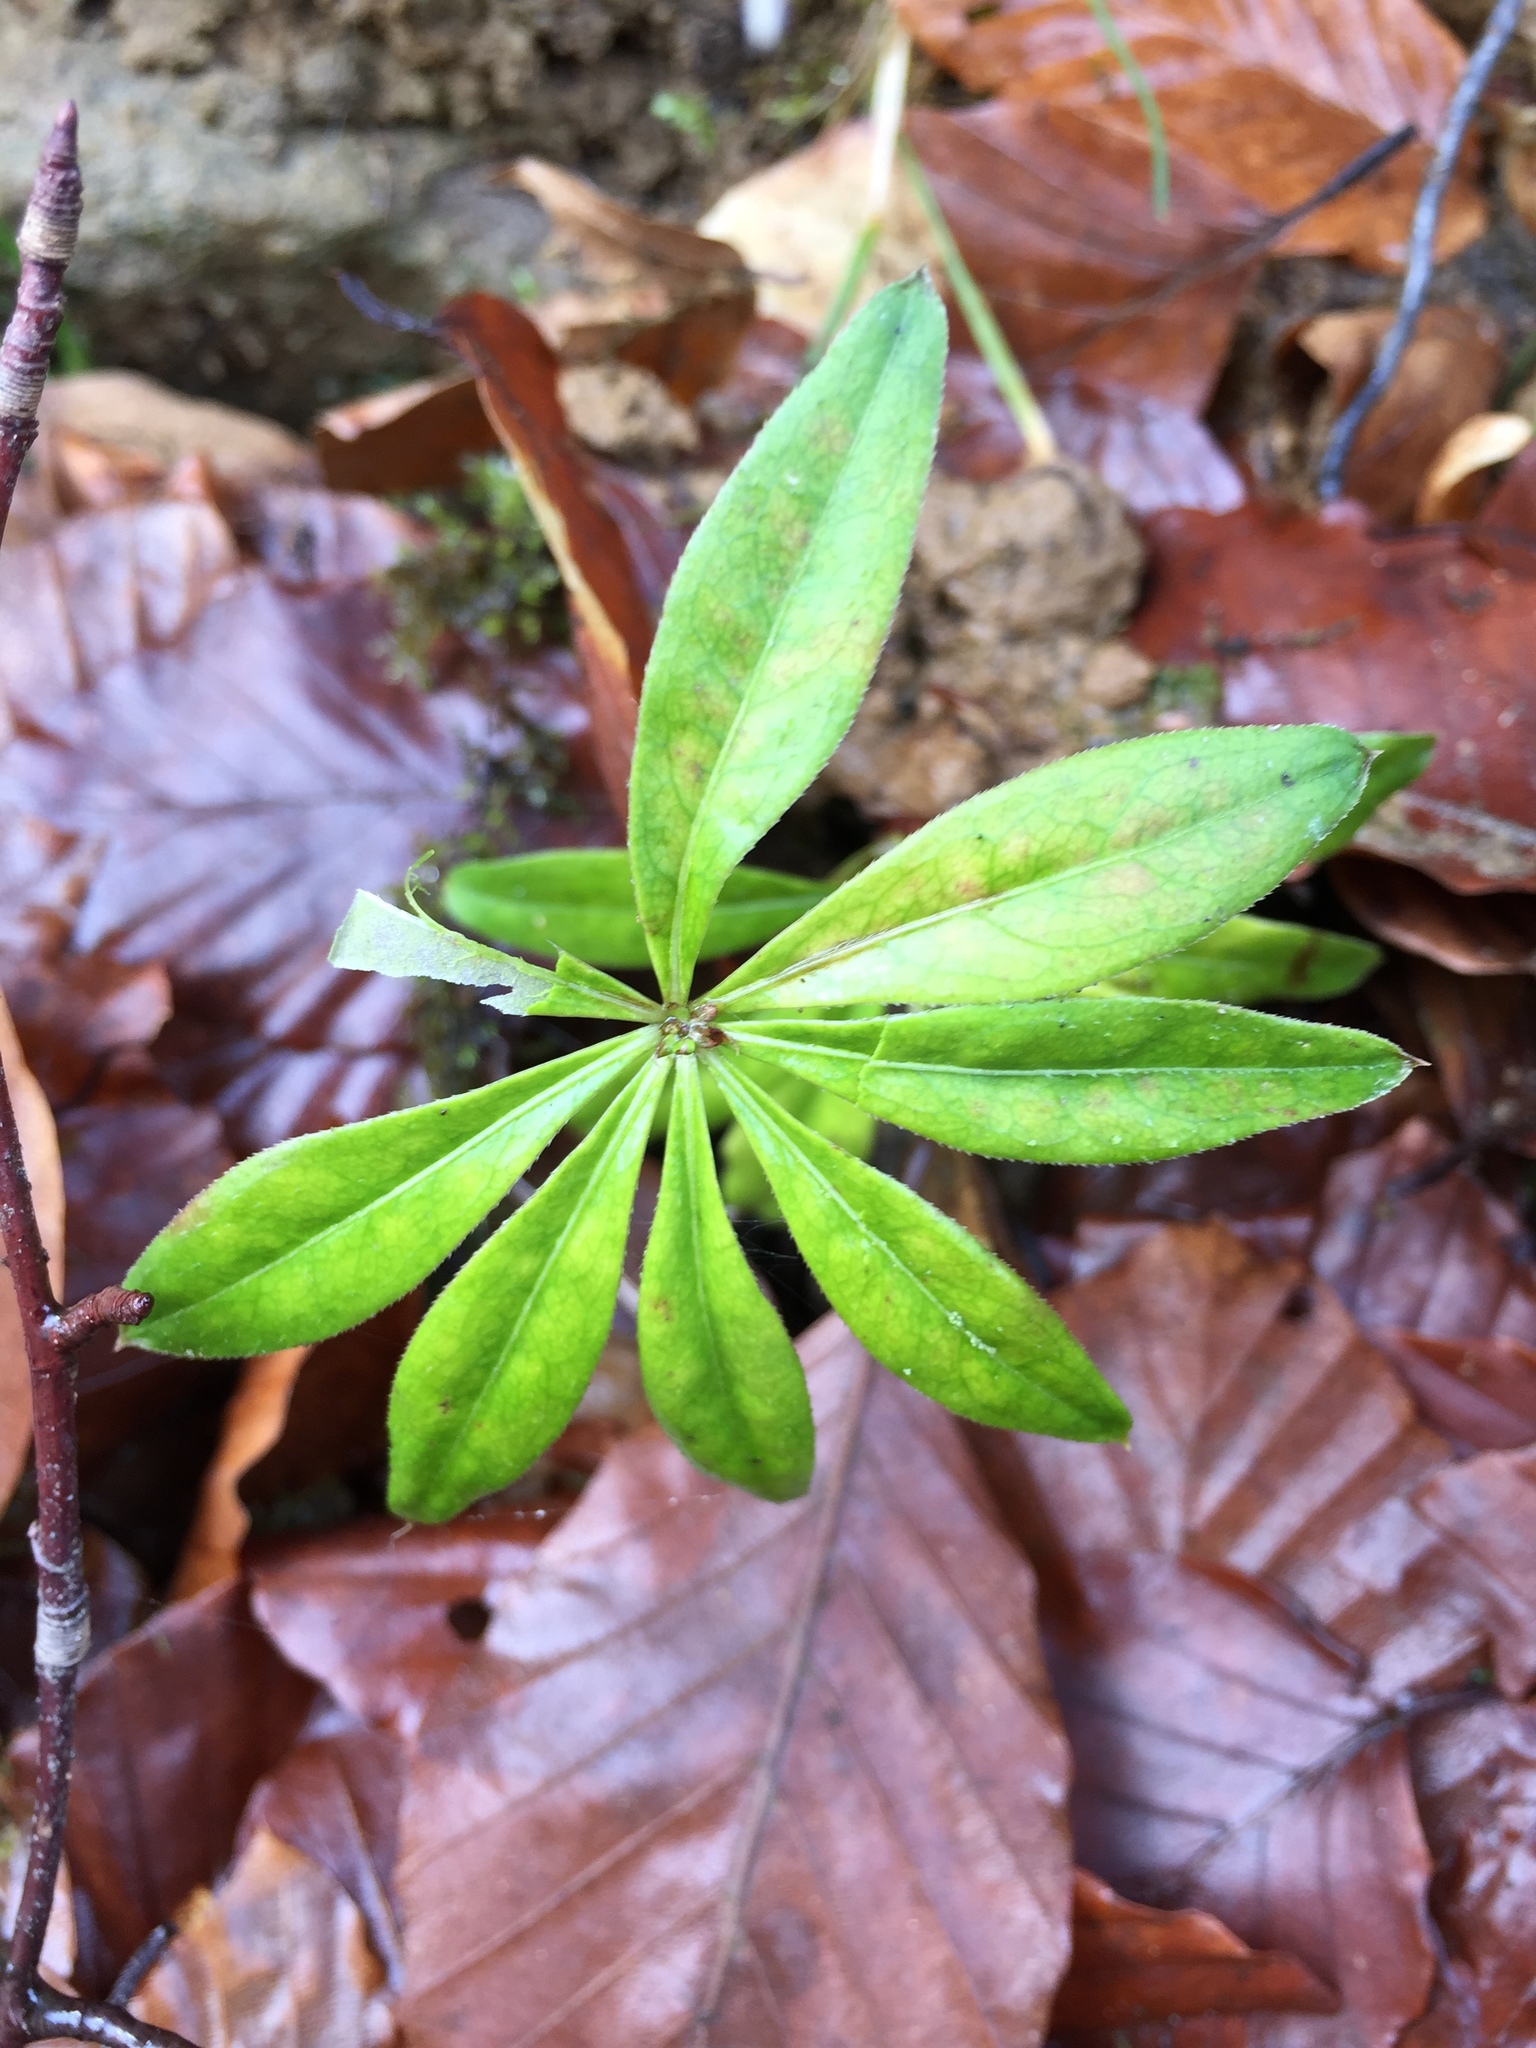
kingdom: Plantae
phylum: Tracheophyta
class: Magnoliopsida
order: Gentianales
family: Rubiaceae
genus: Galium
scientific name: Galium odoratum
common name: Sweet woodruff
